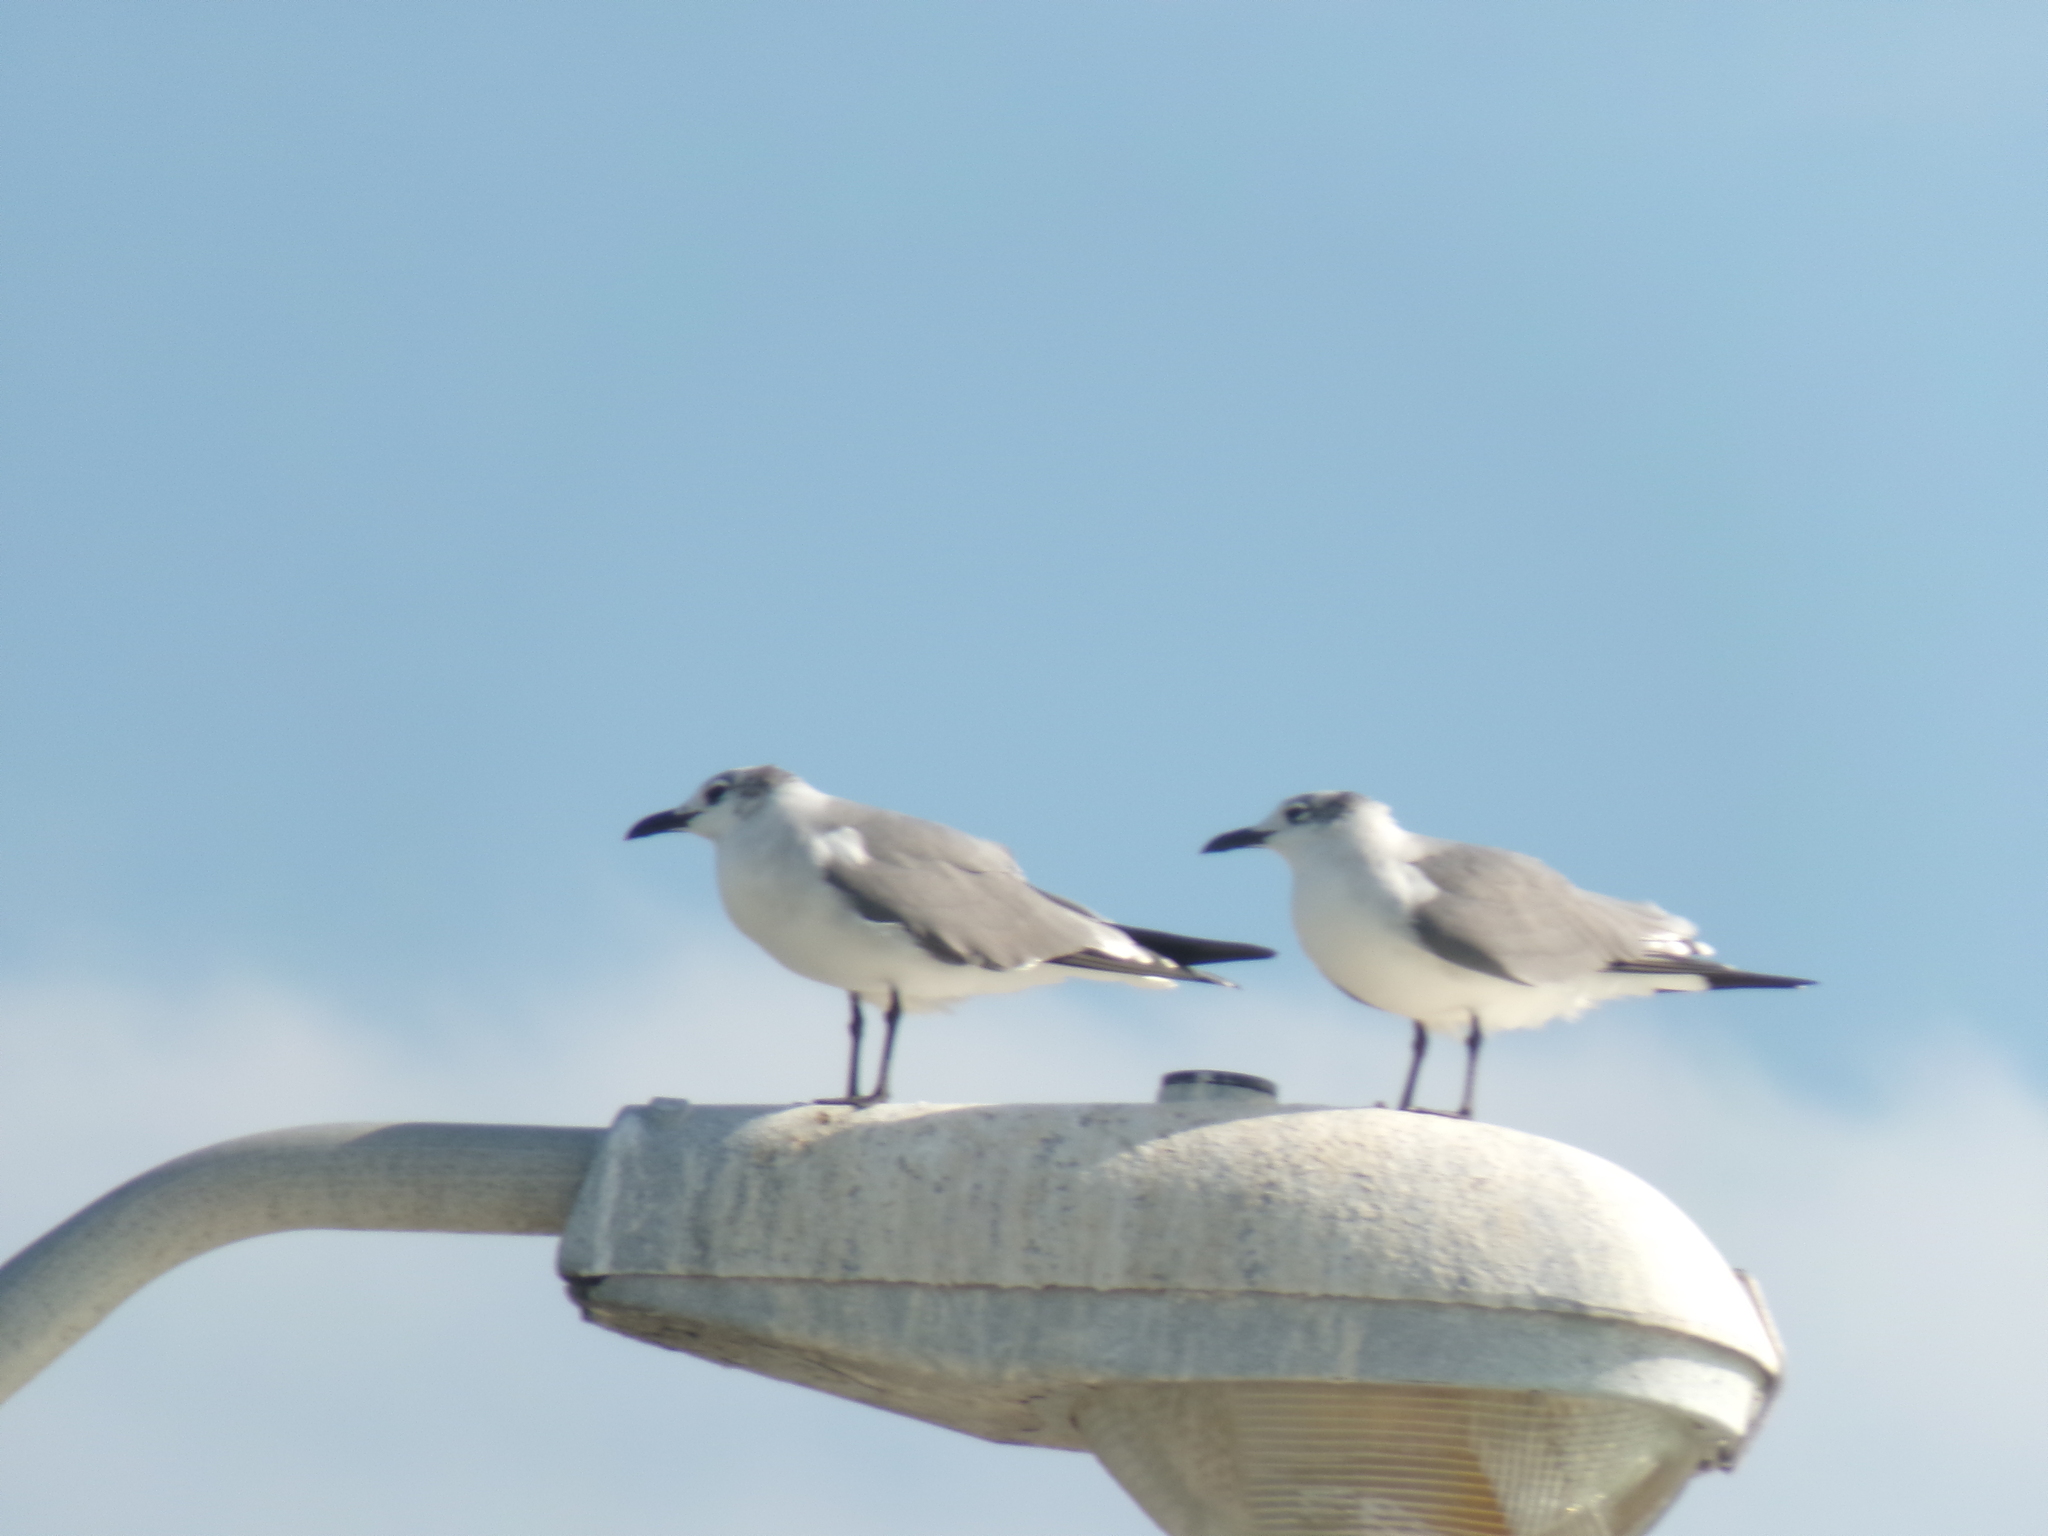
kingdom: Animalia
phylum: Chordata
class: Aves
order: Charadriiformes
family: Laridae
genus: Leucophaeus
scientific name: Leucophaeus atricilla
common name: Laughing gull
